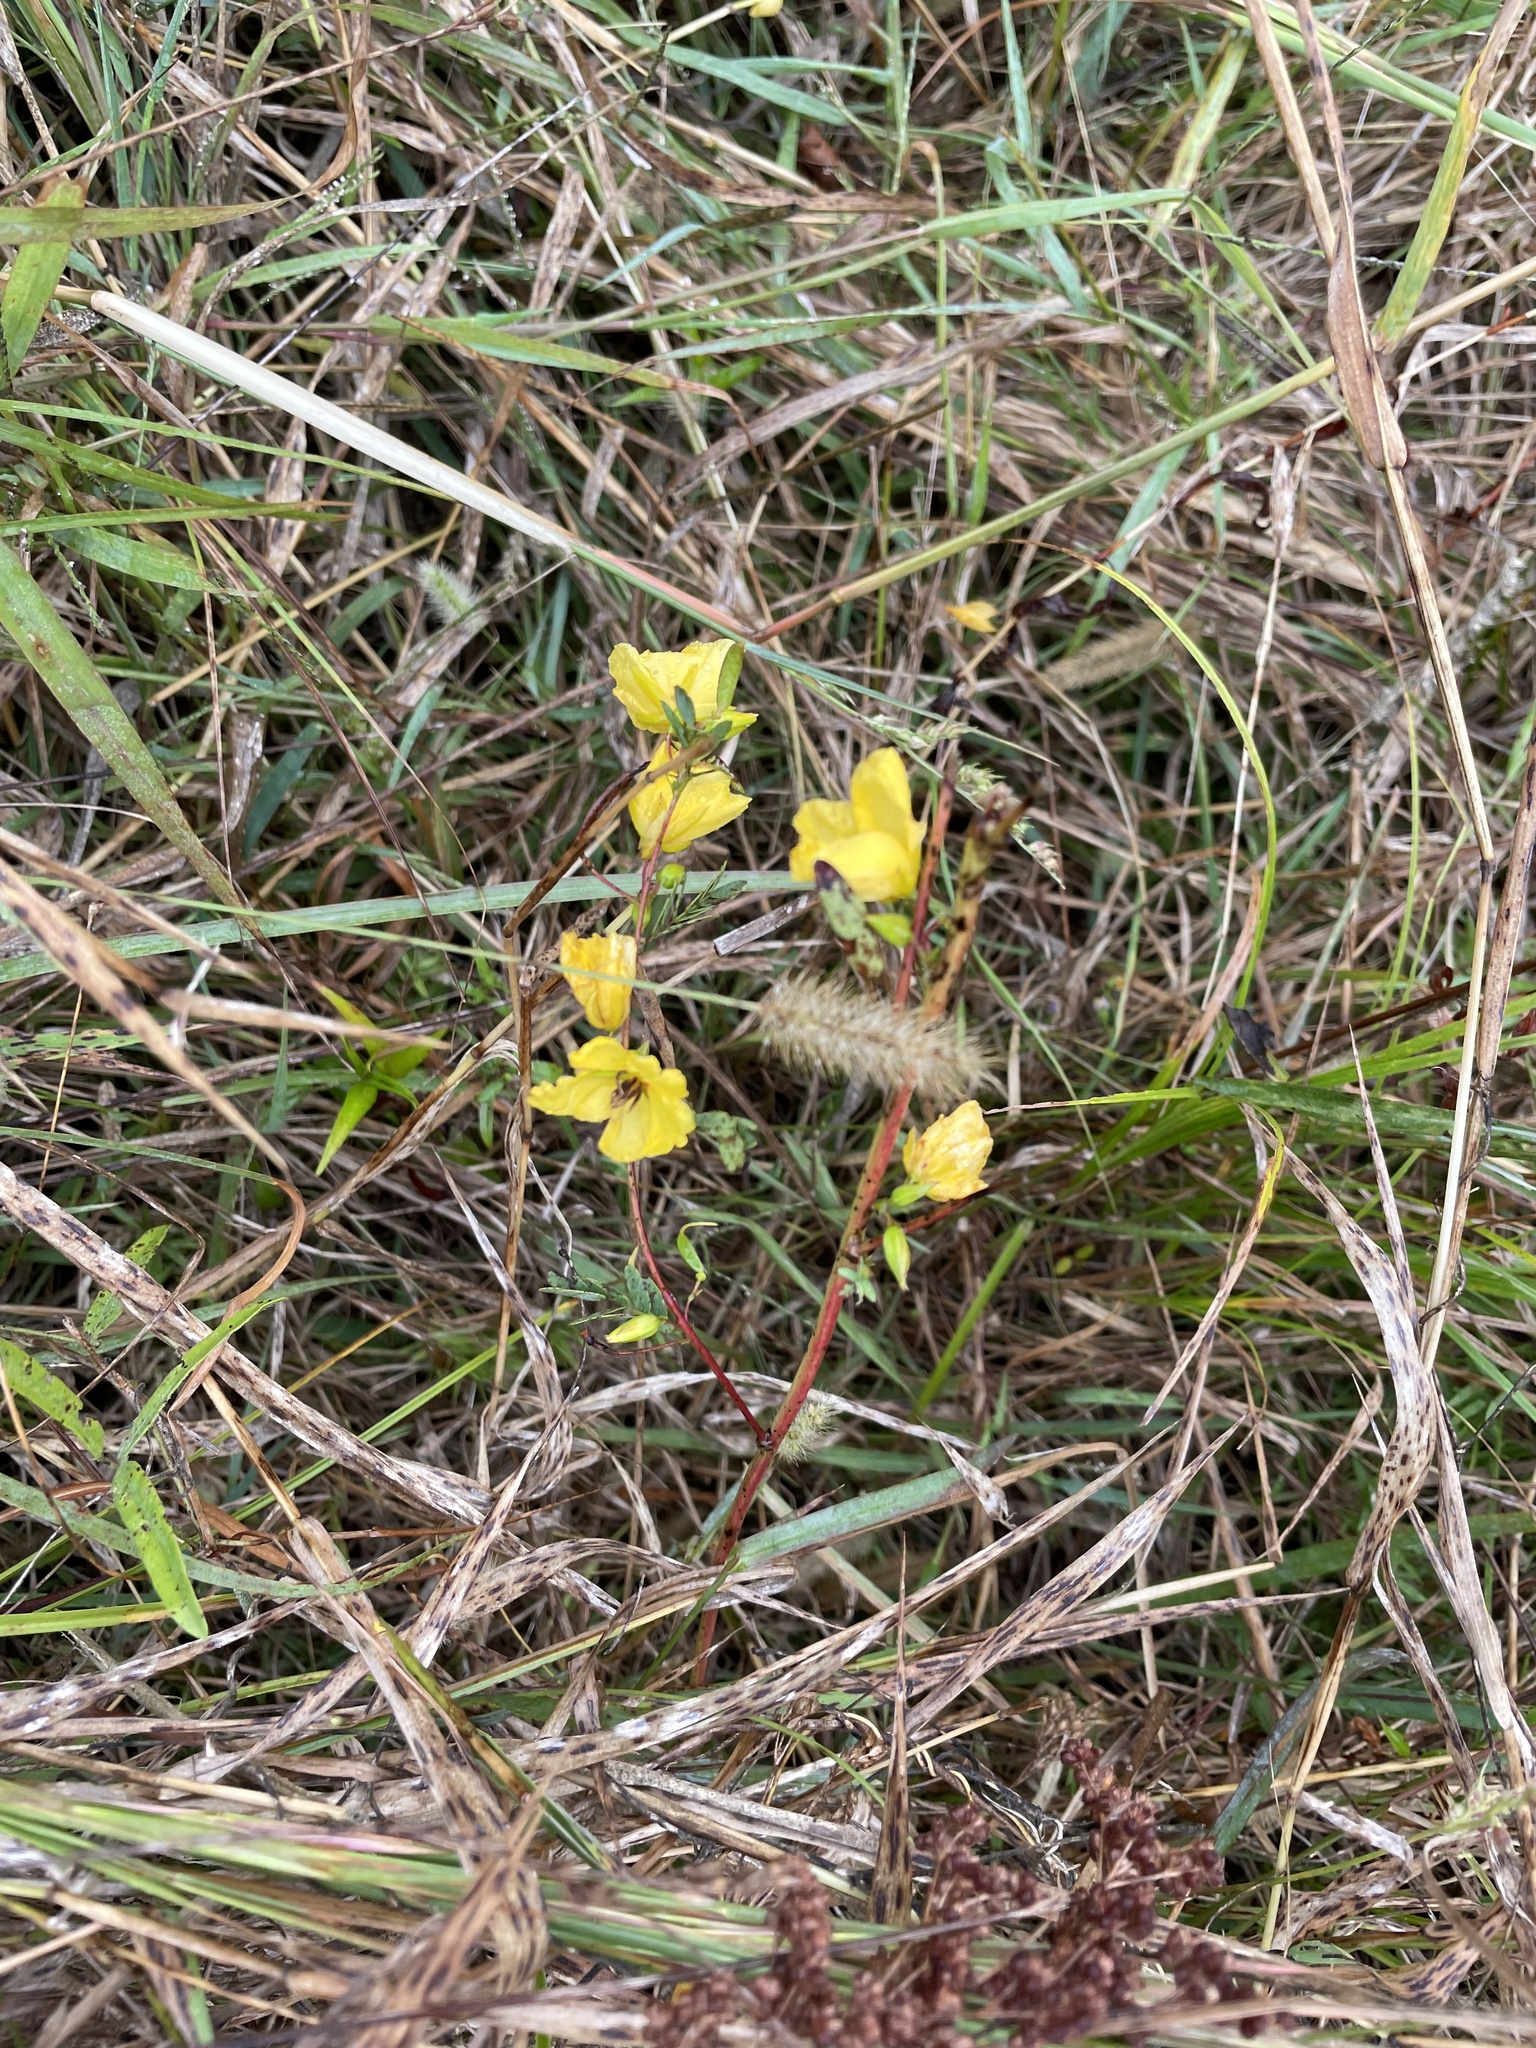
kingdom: Plantae
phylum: Tracheophyta
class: Magnoliopsida
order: Fabales
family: Fabaceae
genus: Chamaecrista
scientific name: Chamaecrista fasciculata
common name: Golden cassia
